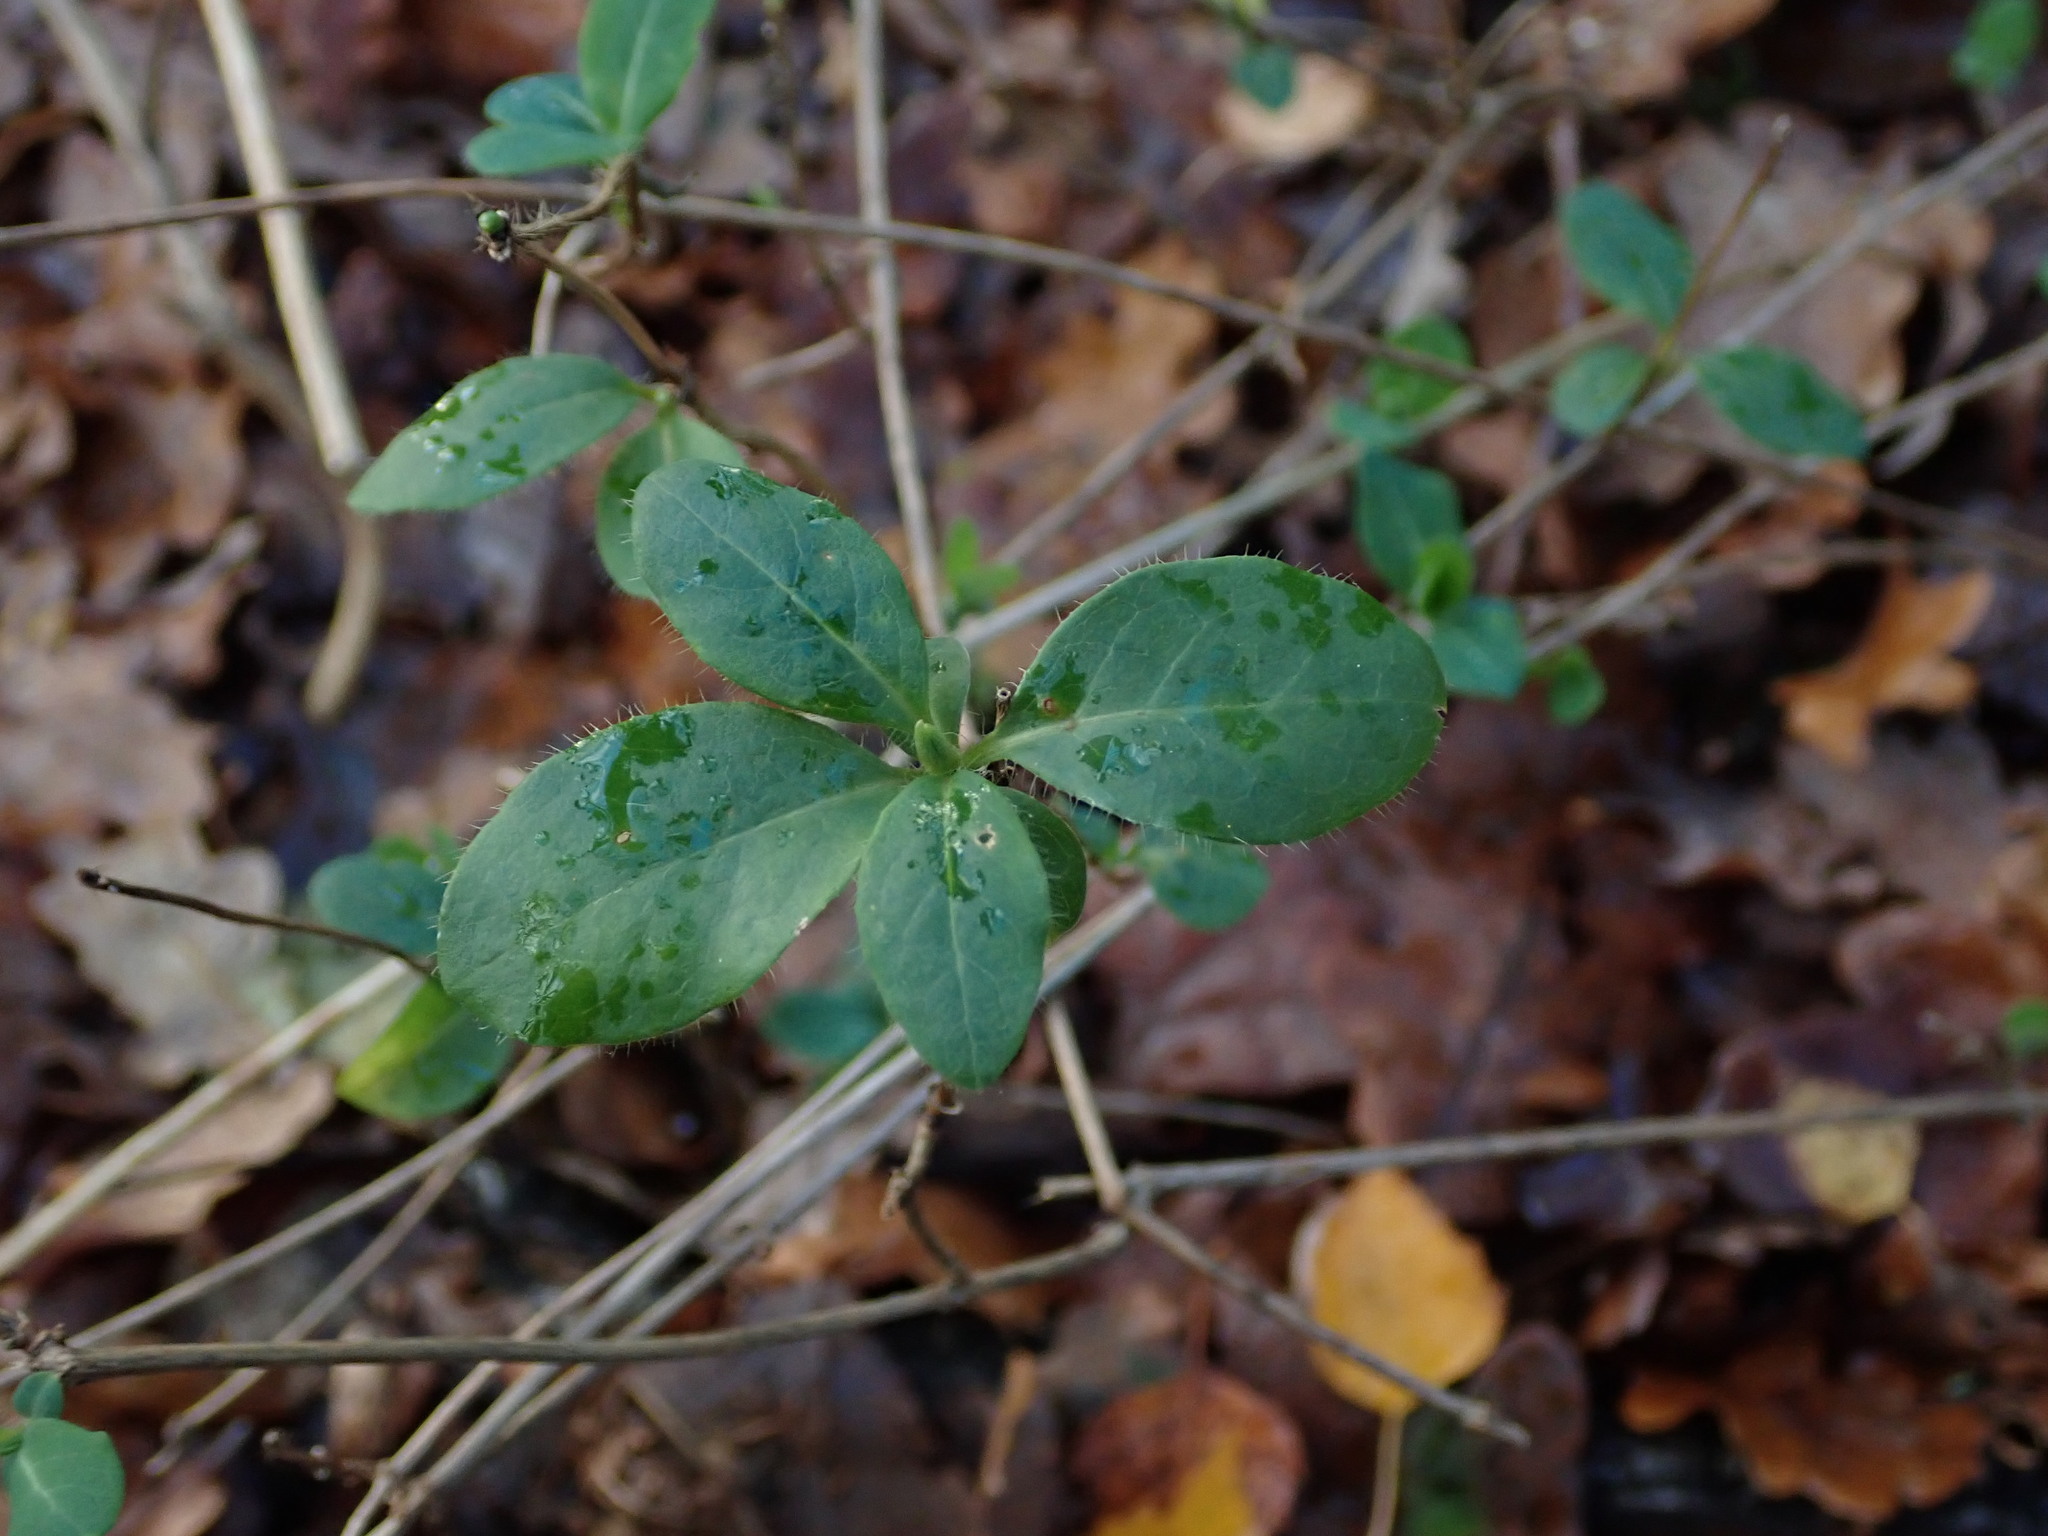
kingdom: Plantae
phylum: Tracheophyta
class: Magnoliopsida
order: Dipsacales
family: Caprifoliaceae
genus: Lonicera
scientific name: Lonicera periclymenum
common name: European honeysuckle
